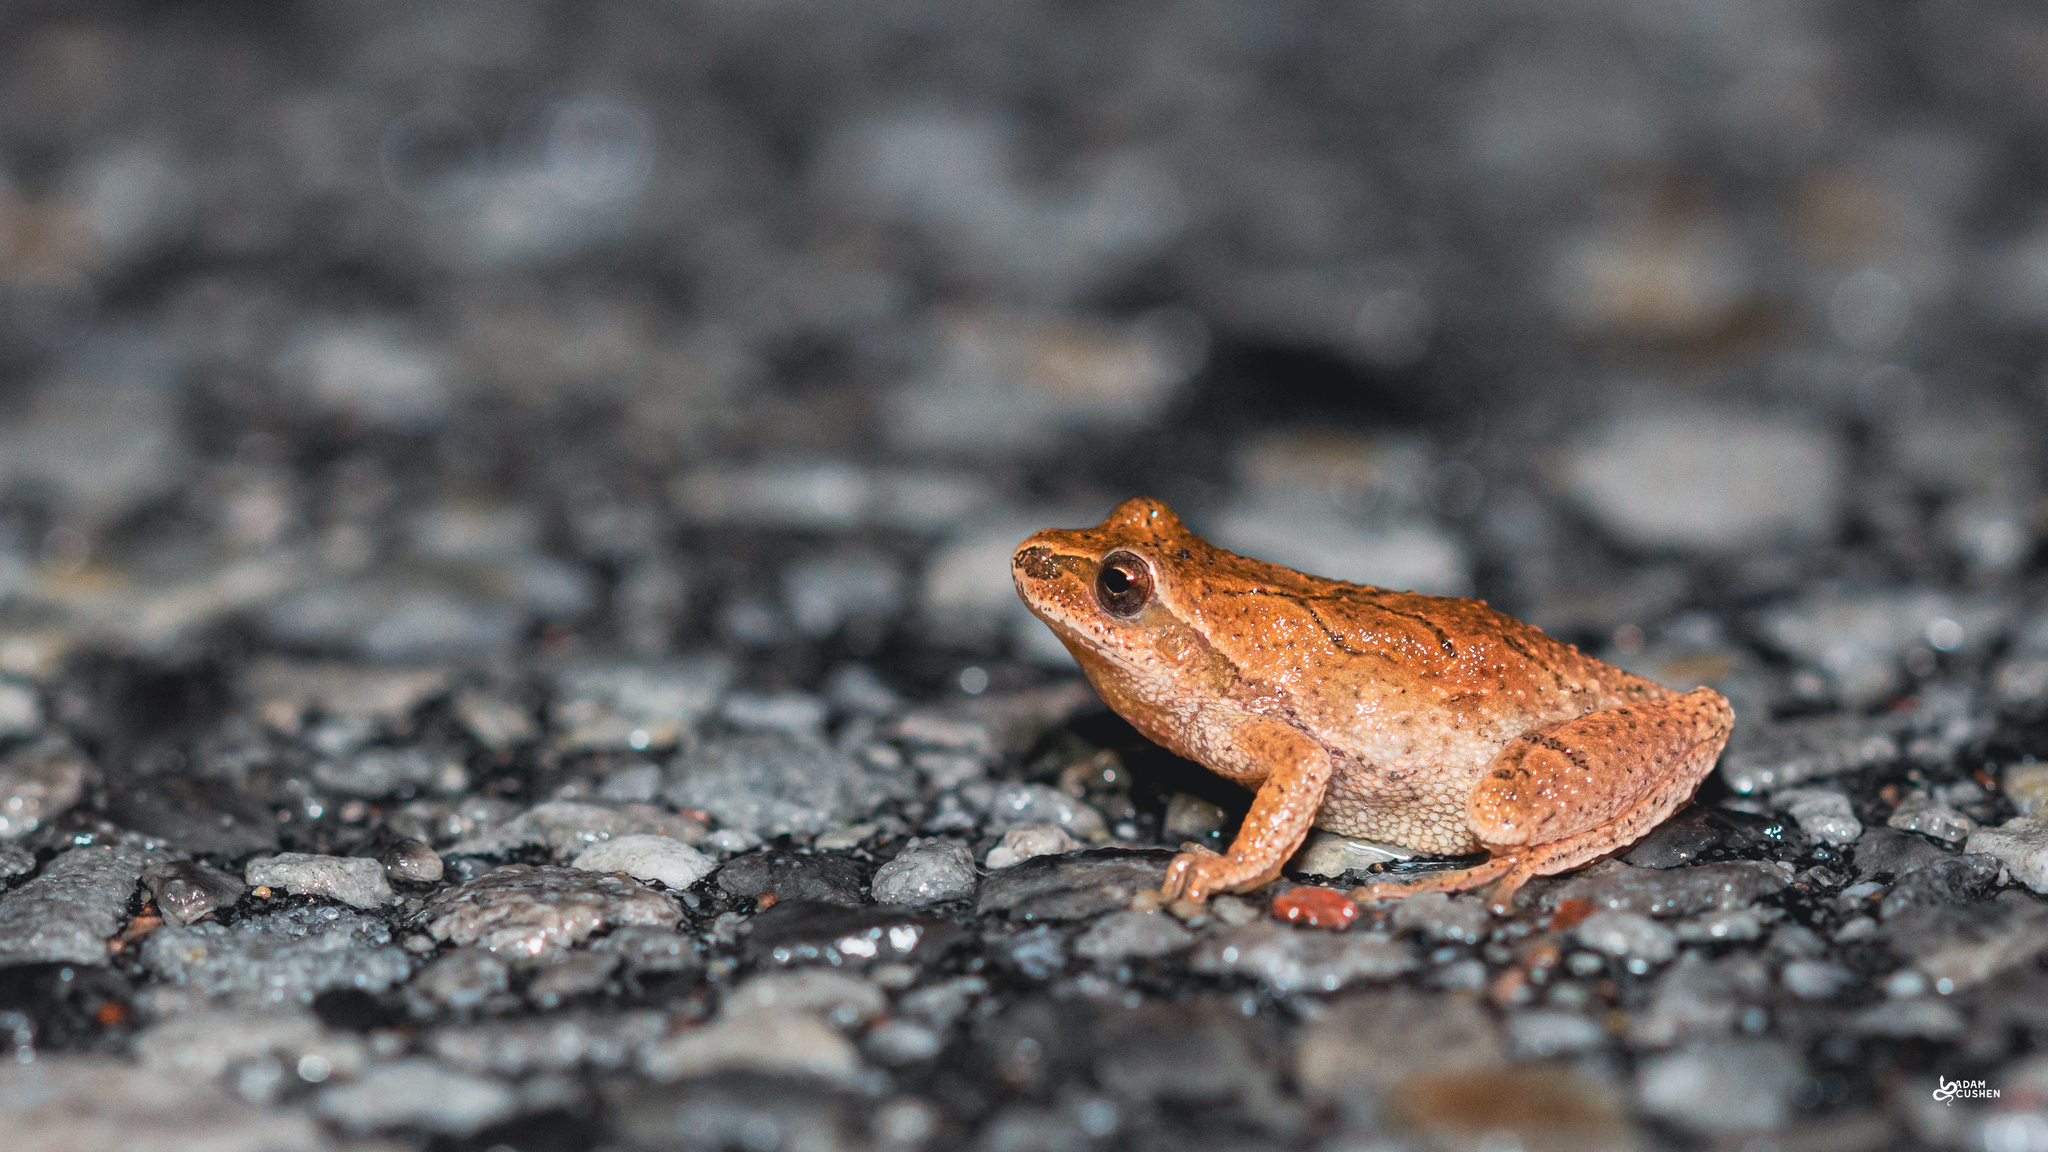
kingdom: Animalia
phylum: Chordata
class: Amphibia
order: Anura
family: Hylidae
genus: Pseudacris
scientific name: Pseudacris crucifer
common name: Spring peeper
